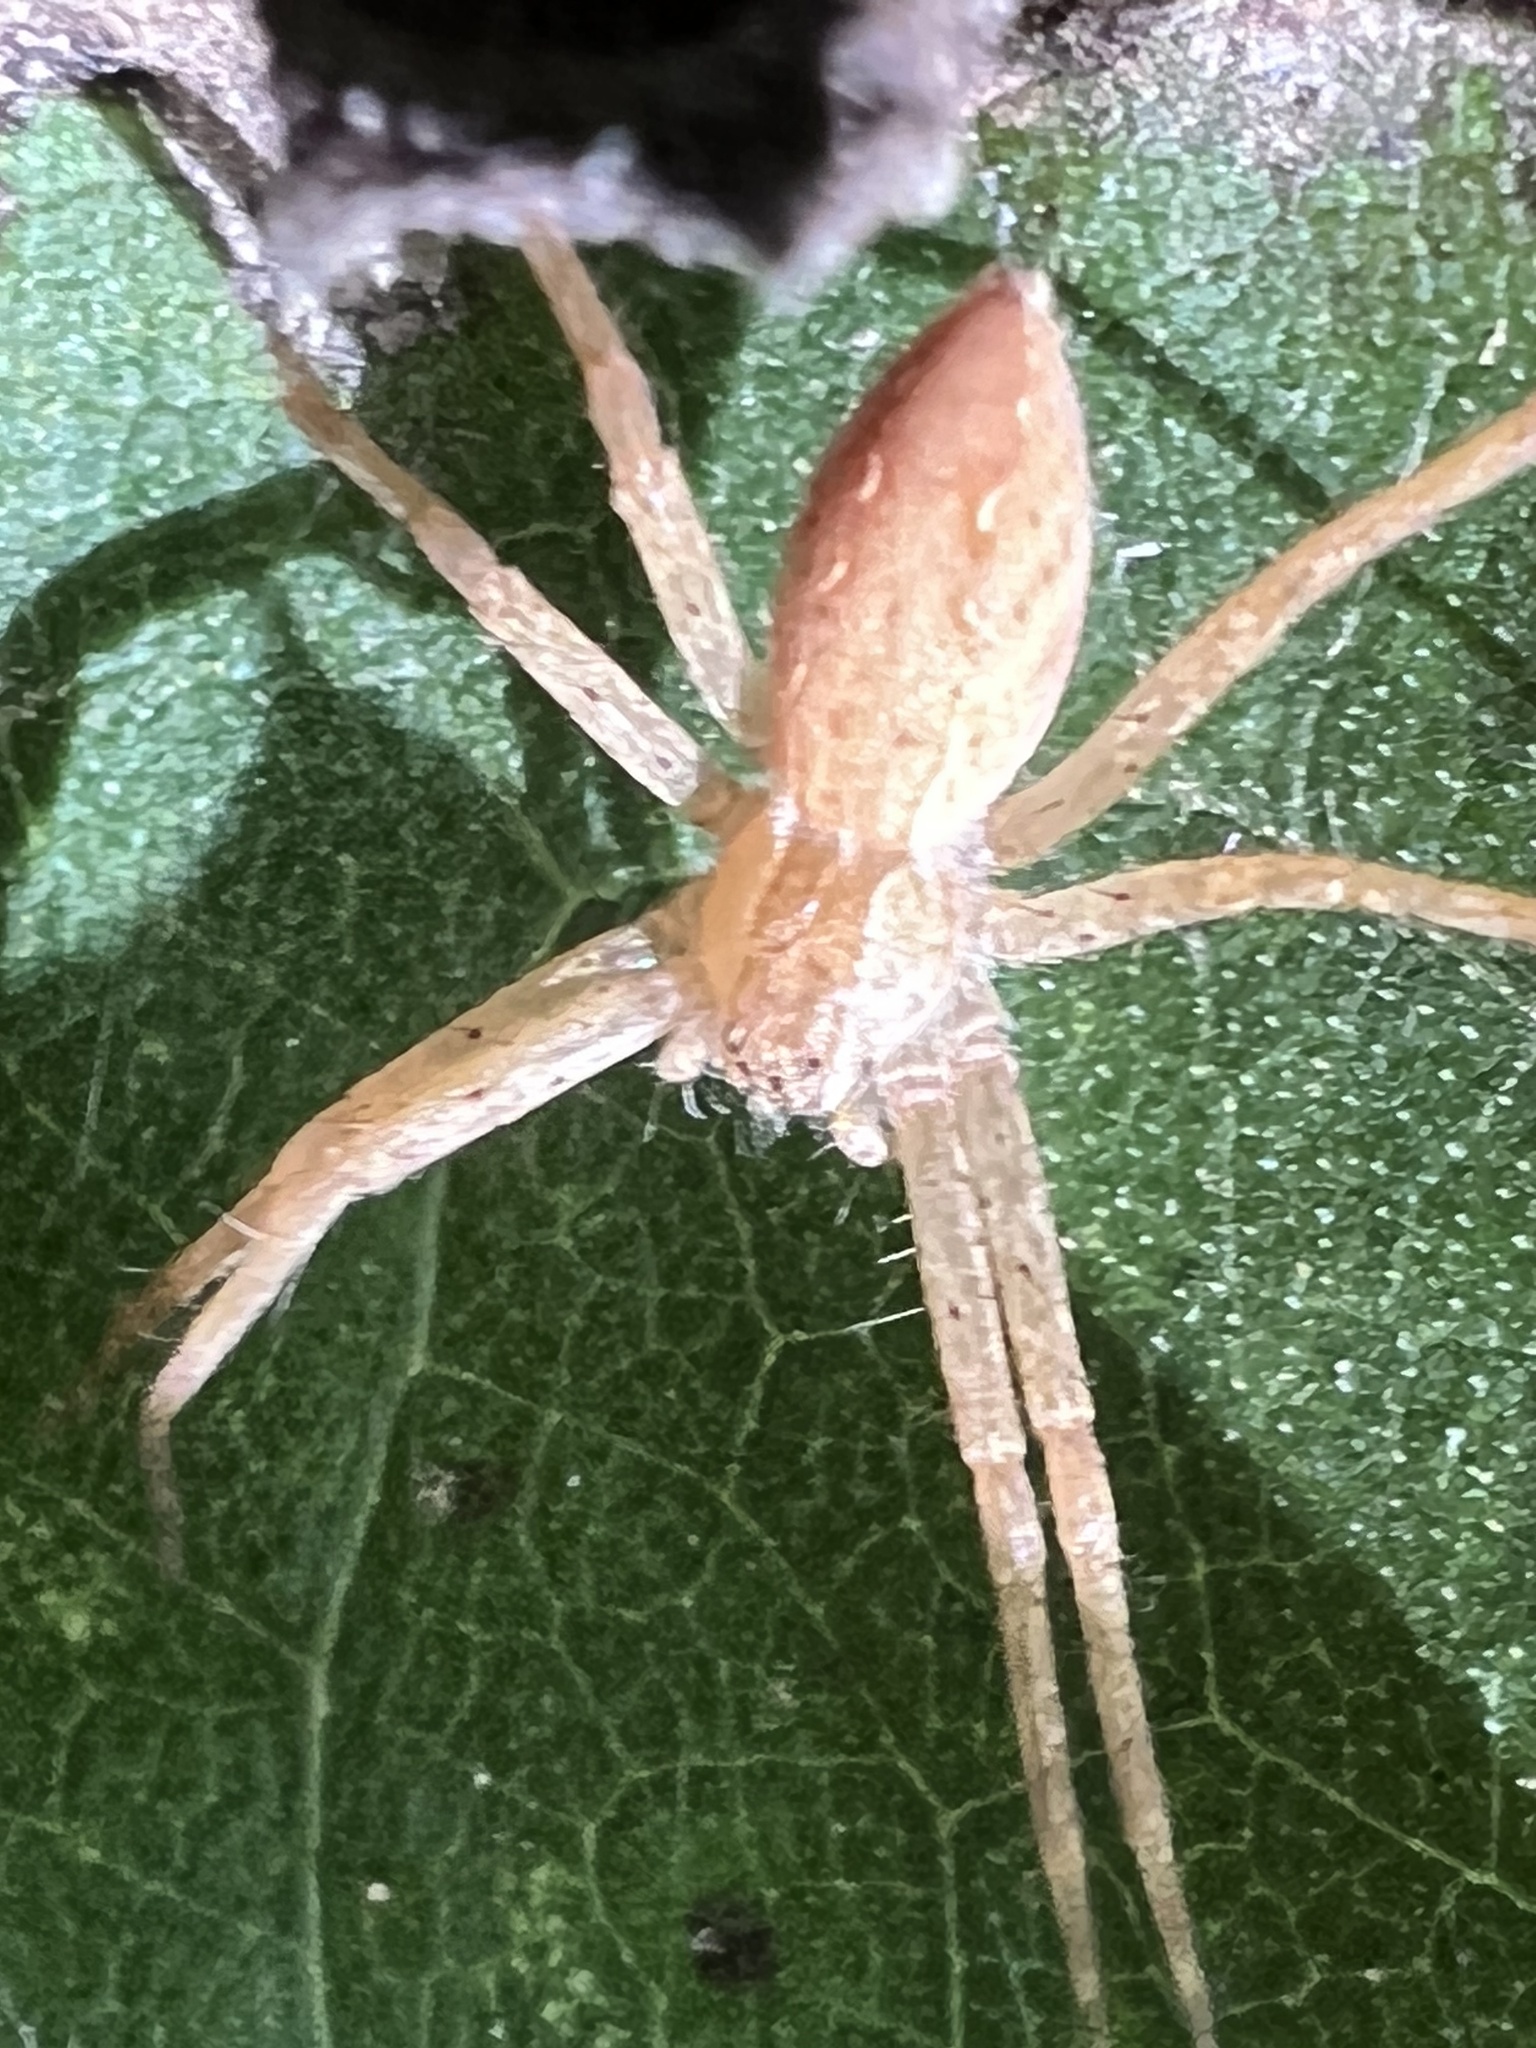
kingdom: Animalia
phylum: Arthropoda
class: Arachnida
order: Araneae
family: Pisauridae
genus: Pisaurina
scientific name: Pisaurina mira
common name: American nursery web spider
